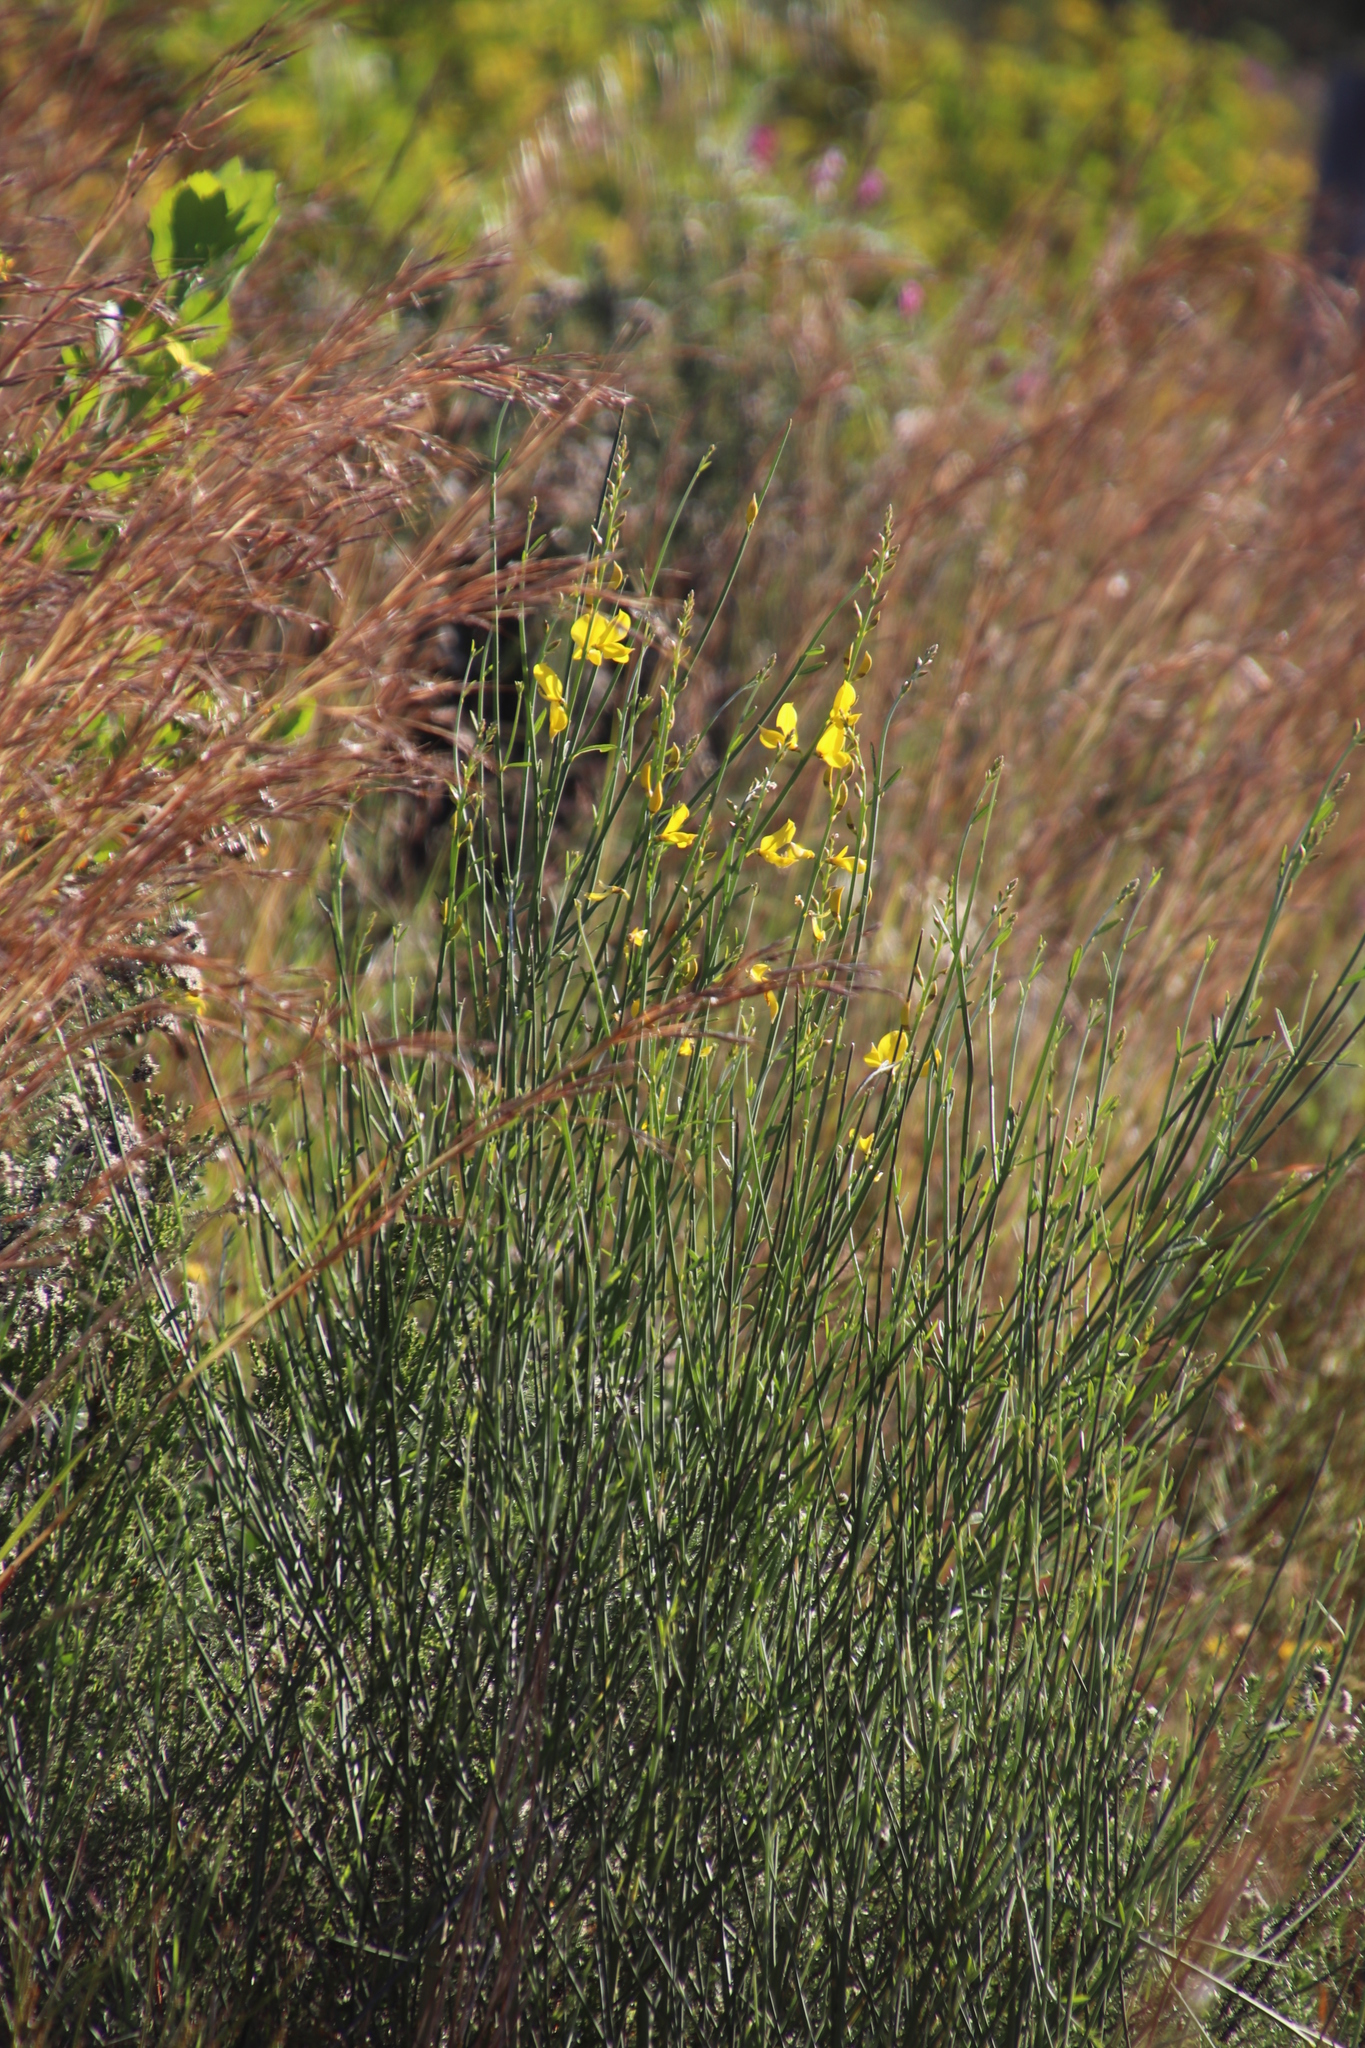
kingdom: Plantae
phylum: Tracheophyta
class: Magnoliopsida
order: Fabales
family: Fabaceae
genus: Spartium
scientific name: Spartium junceum
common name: Spanish broom
